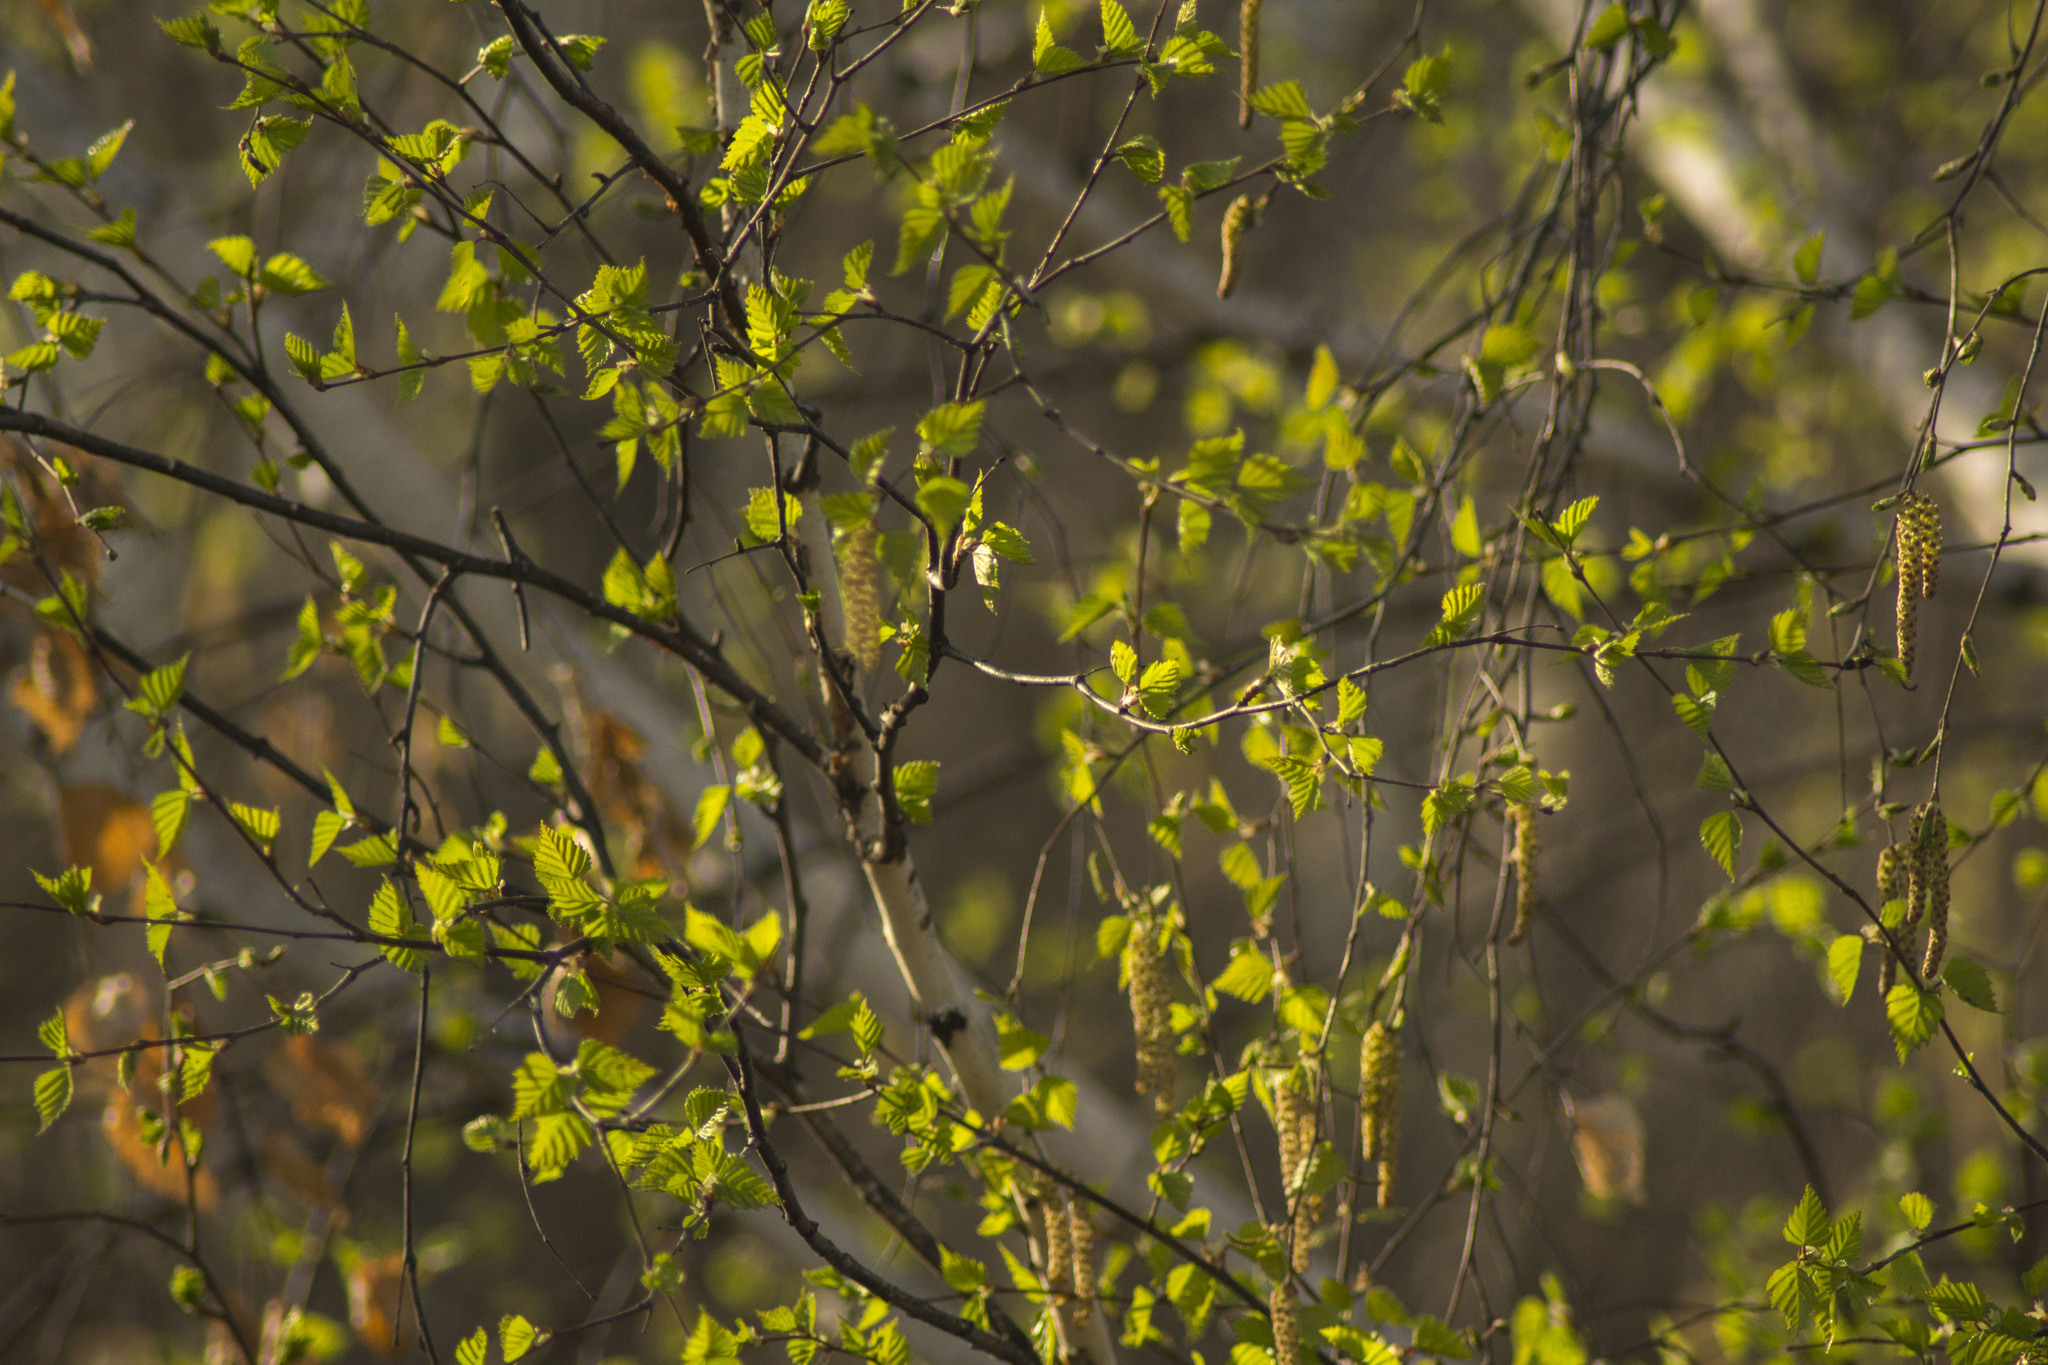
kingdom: Plantae
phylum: Tracheophyta
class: Magnoliopsida
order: Fagales
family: Betulaceae
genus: Betula
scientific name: Betula pendula
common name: Silver birch
